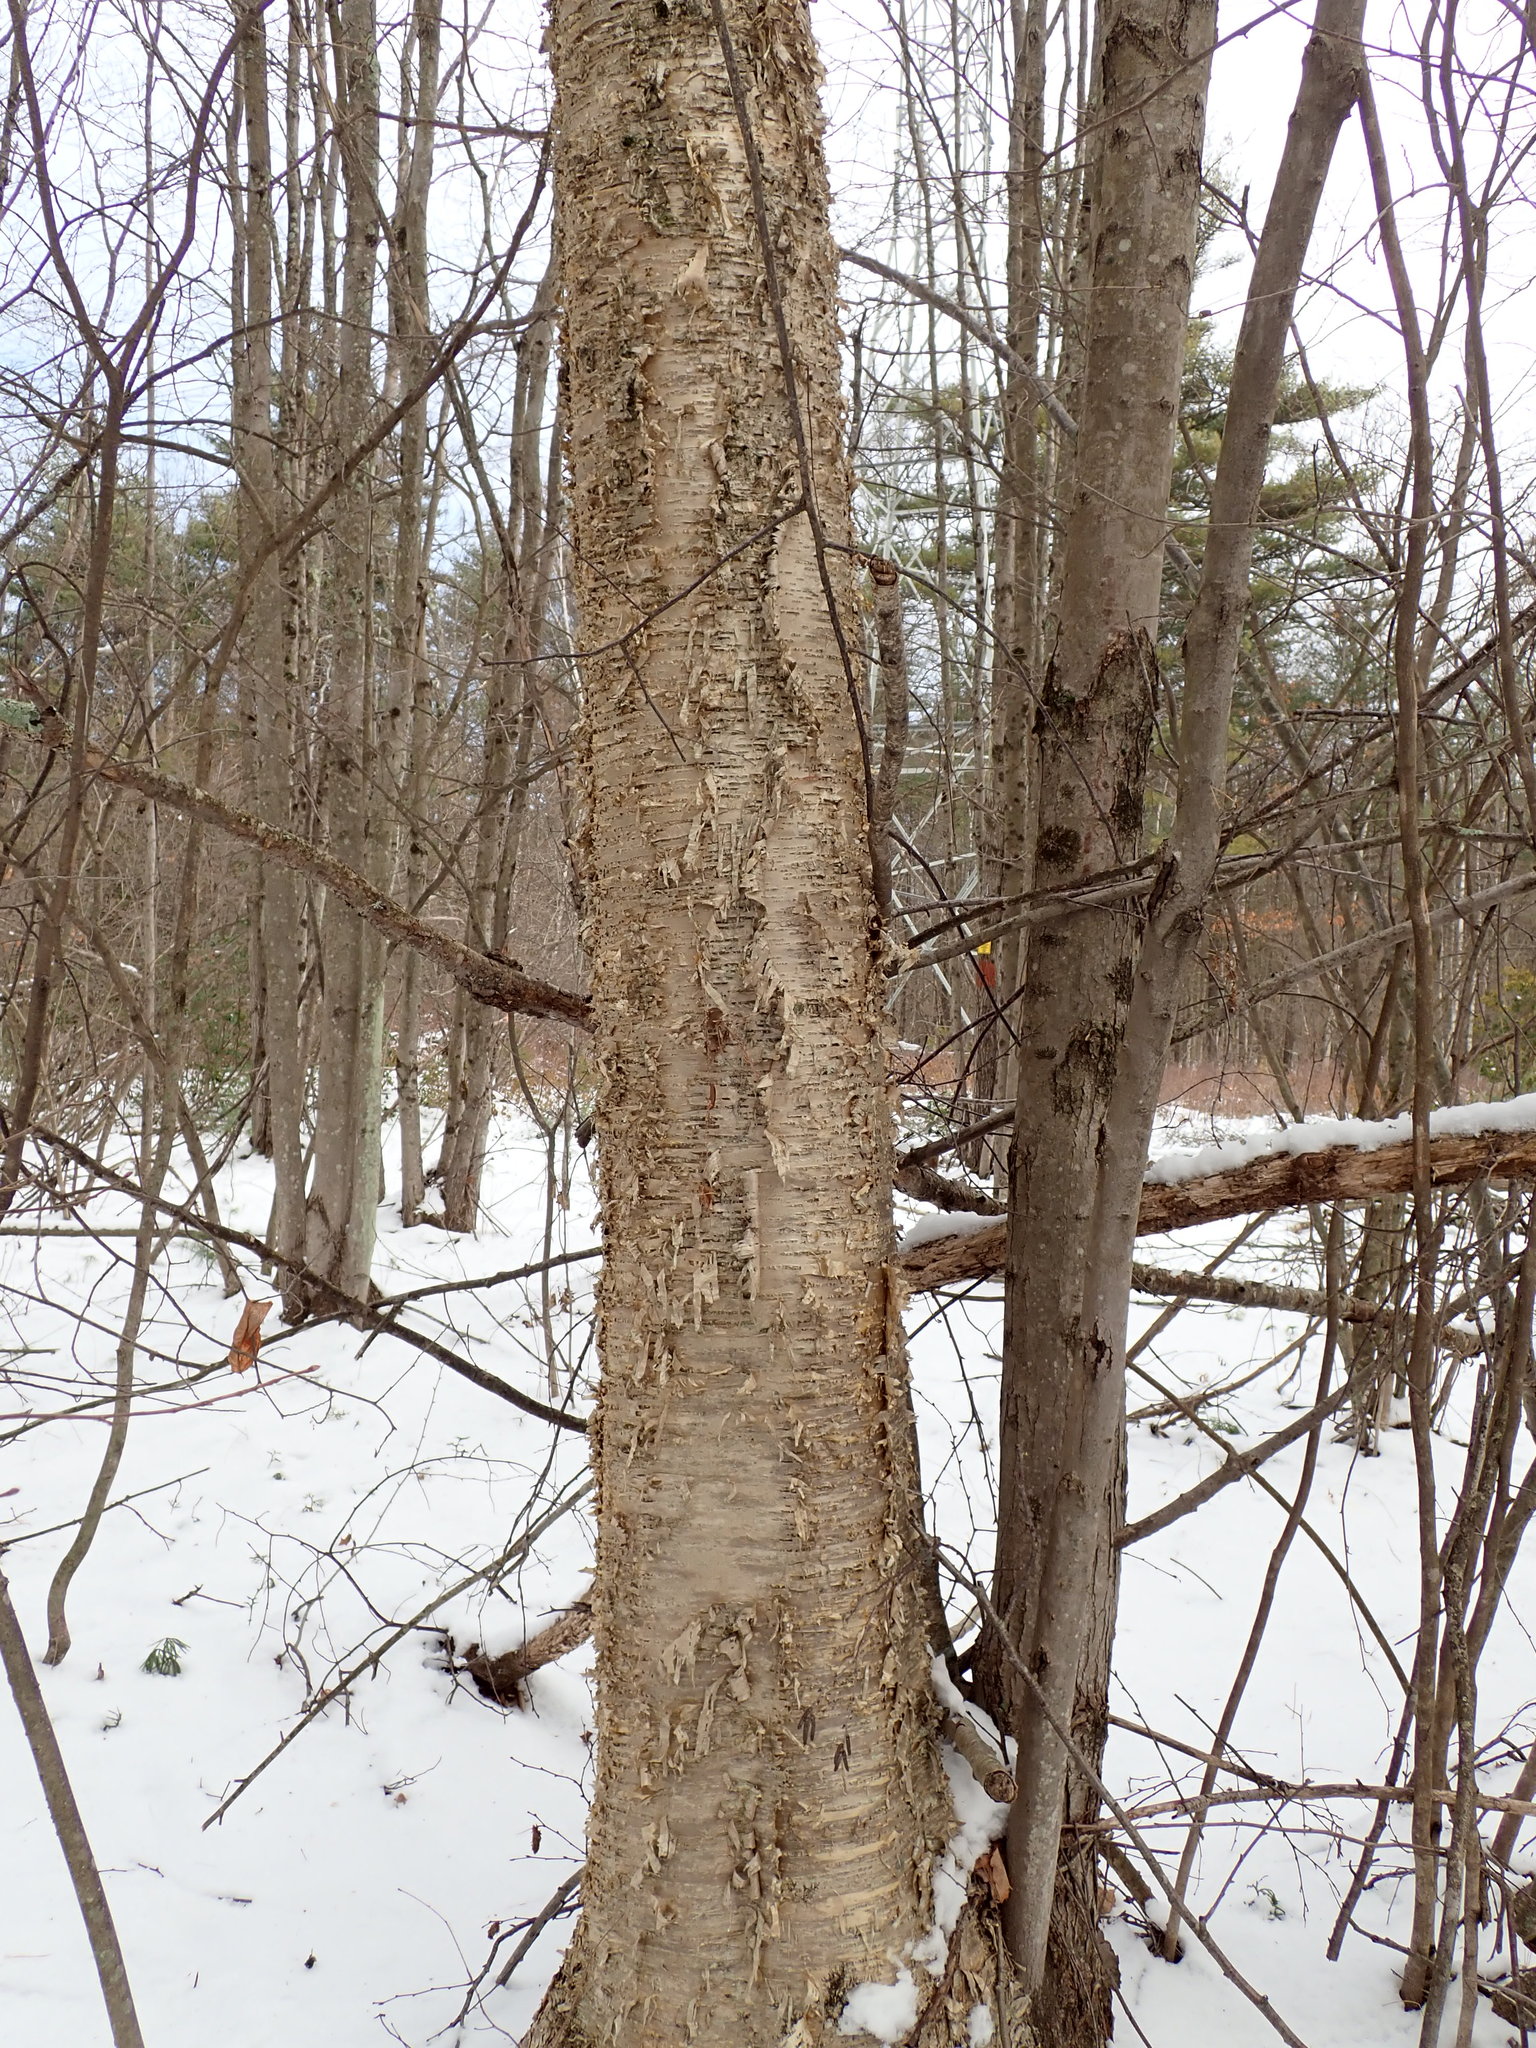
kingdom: Plantae
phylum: Tracheophyta
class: Magnoliopsida
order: Fagales
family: Betulaceae
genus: Betula
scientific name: Betula alleghaniensis
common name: Yellow birch
